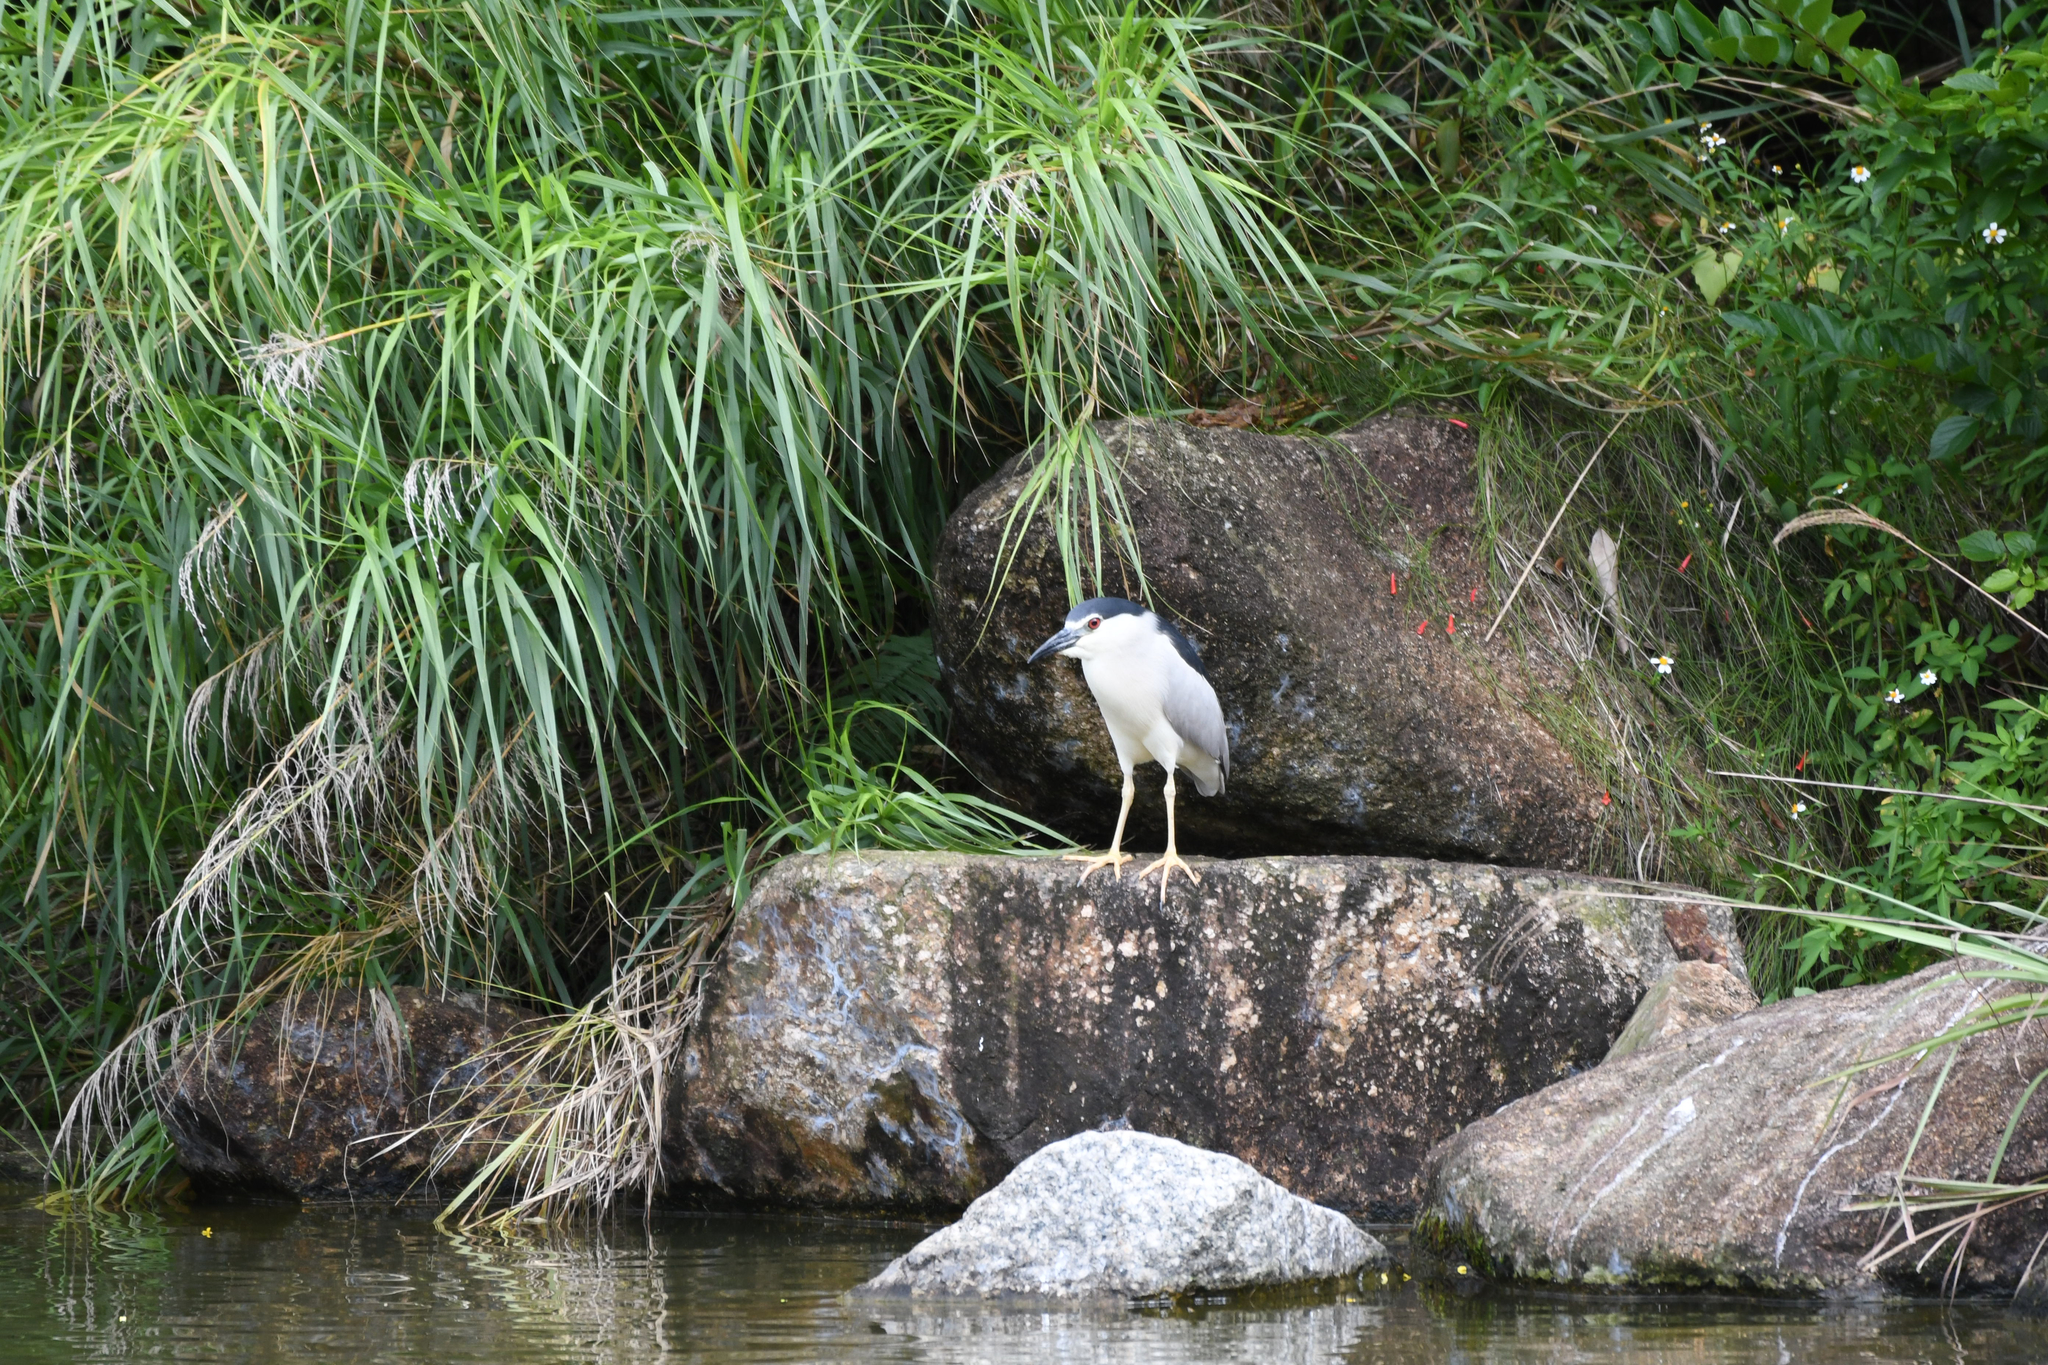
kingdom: Animalia
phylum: Chordata
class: Aves
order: Pelecaniformes
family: Ardeidae
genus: Nycticorax
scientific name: Nycticorax nycticorax
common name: Black-crowned night heron
